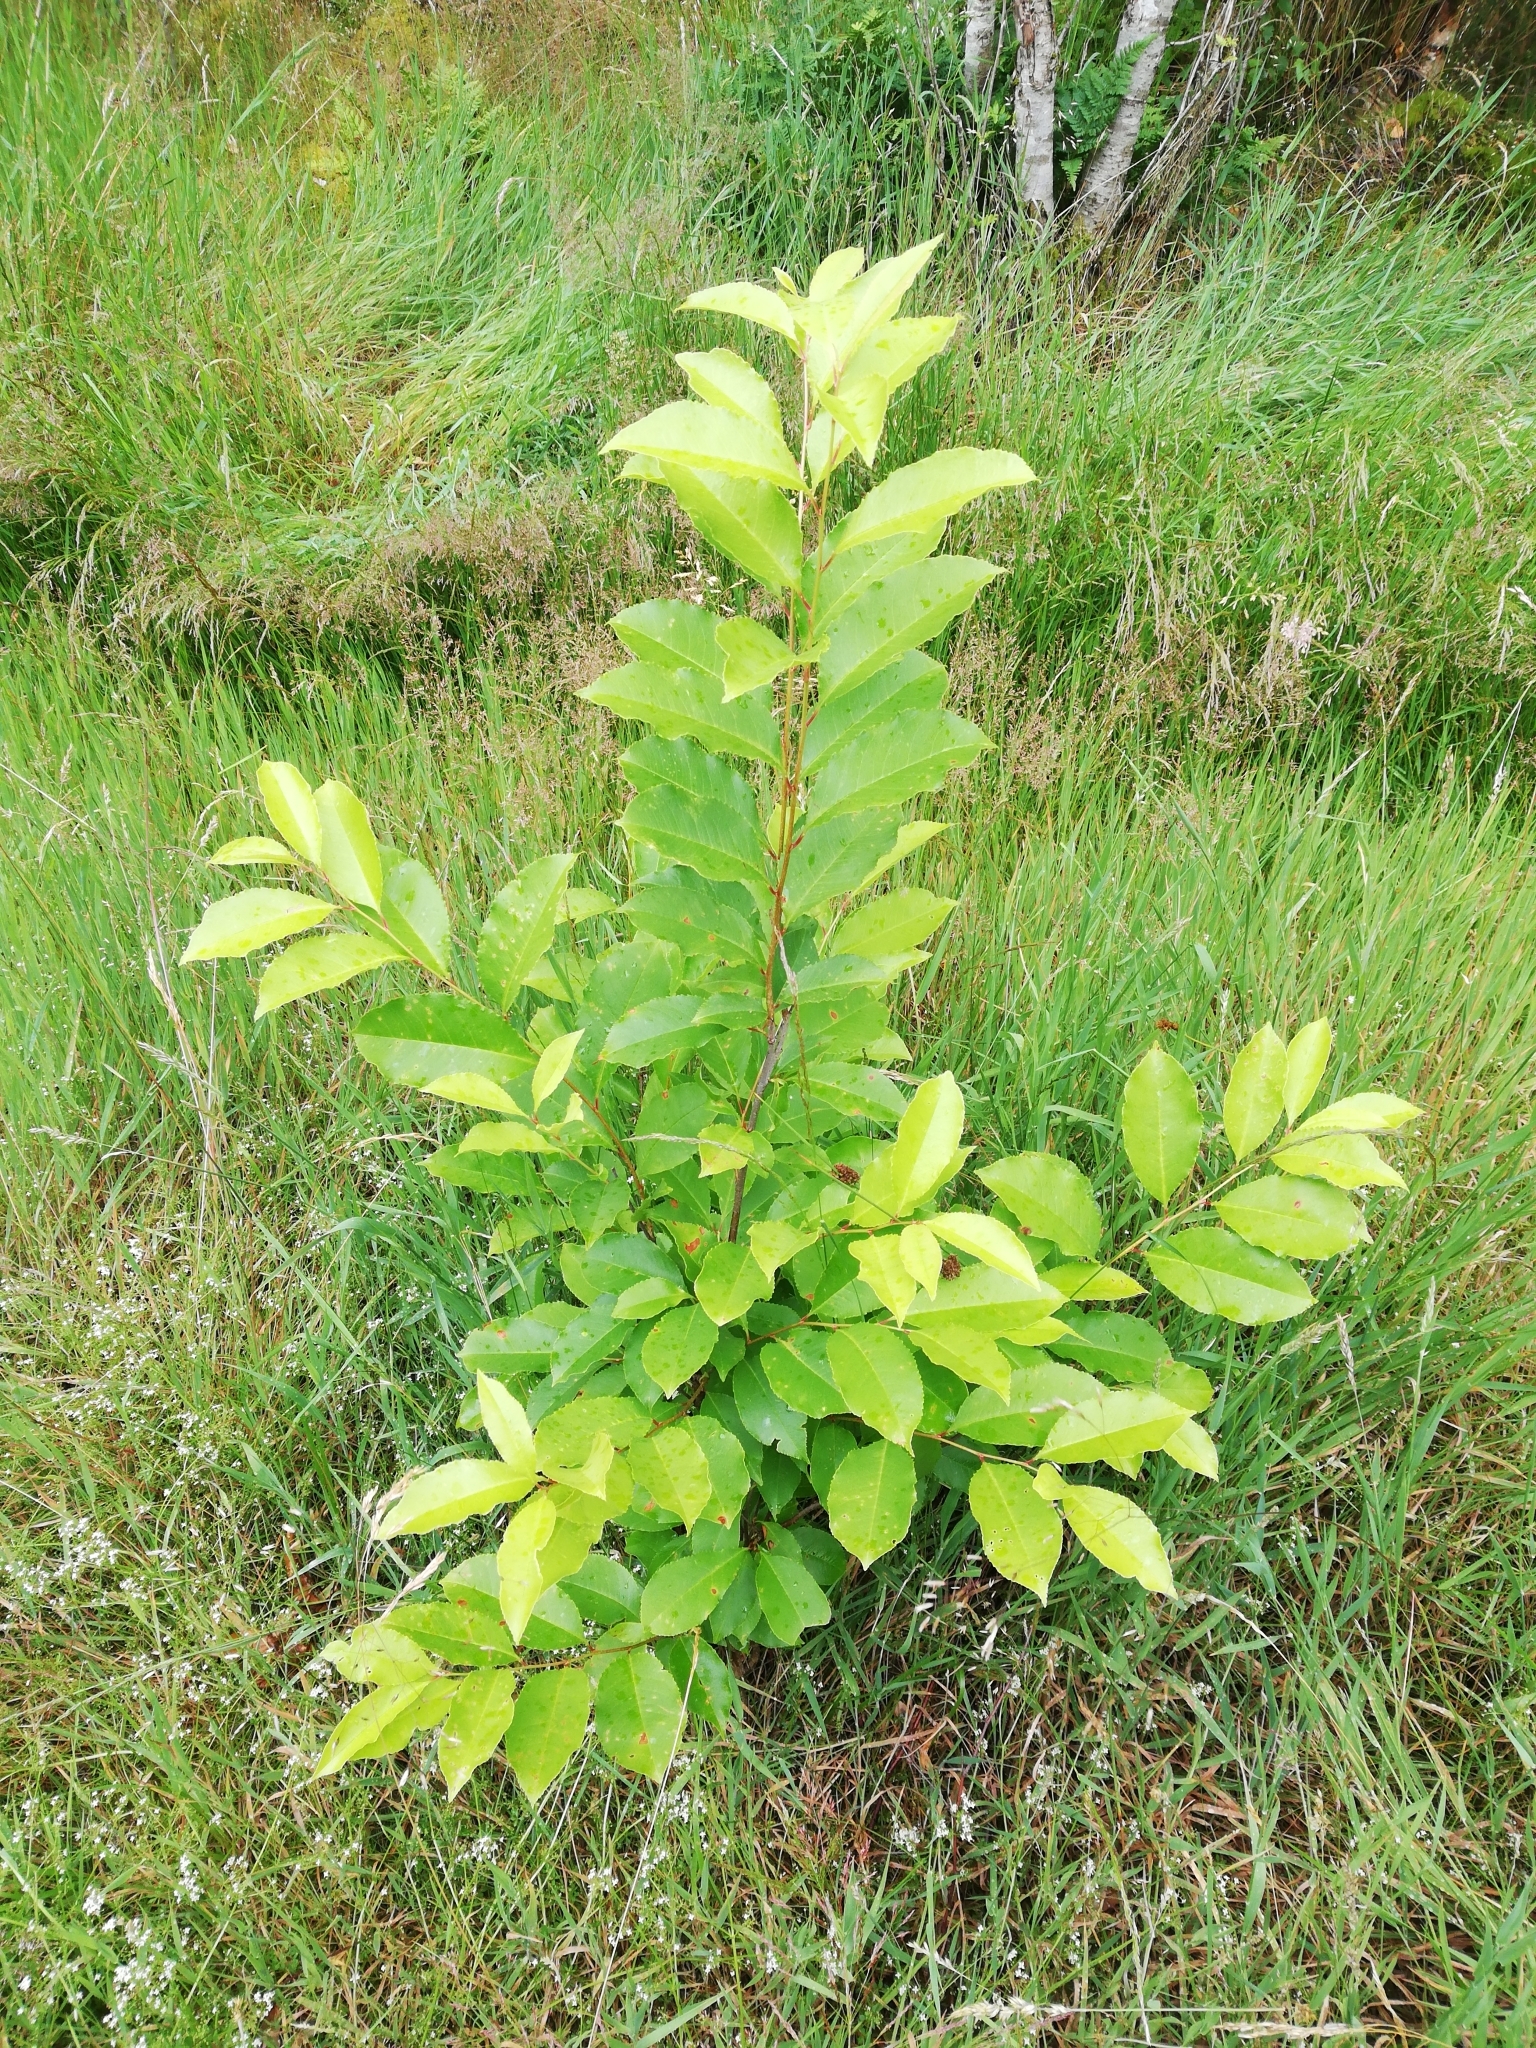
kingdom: Plantae
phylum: Tracheophyta
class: Magnoliopsida
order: Rosales
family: Rosaceae
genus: Prunus
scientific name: Prunus serotina
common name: Black cherry
